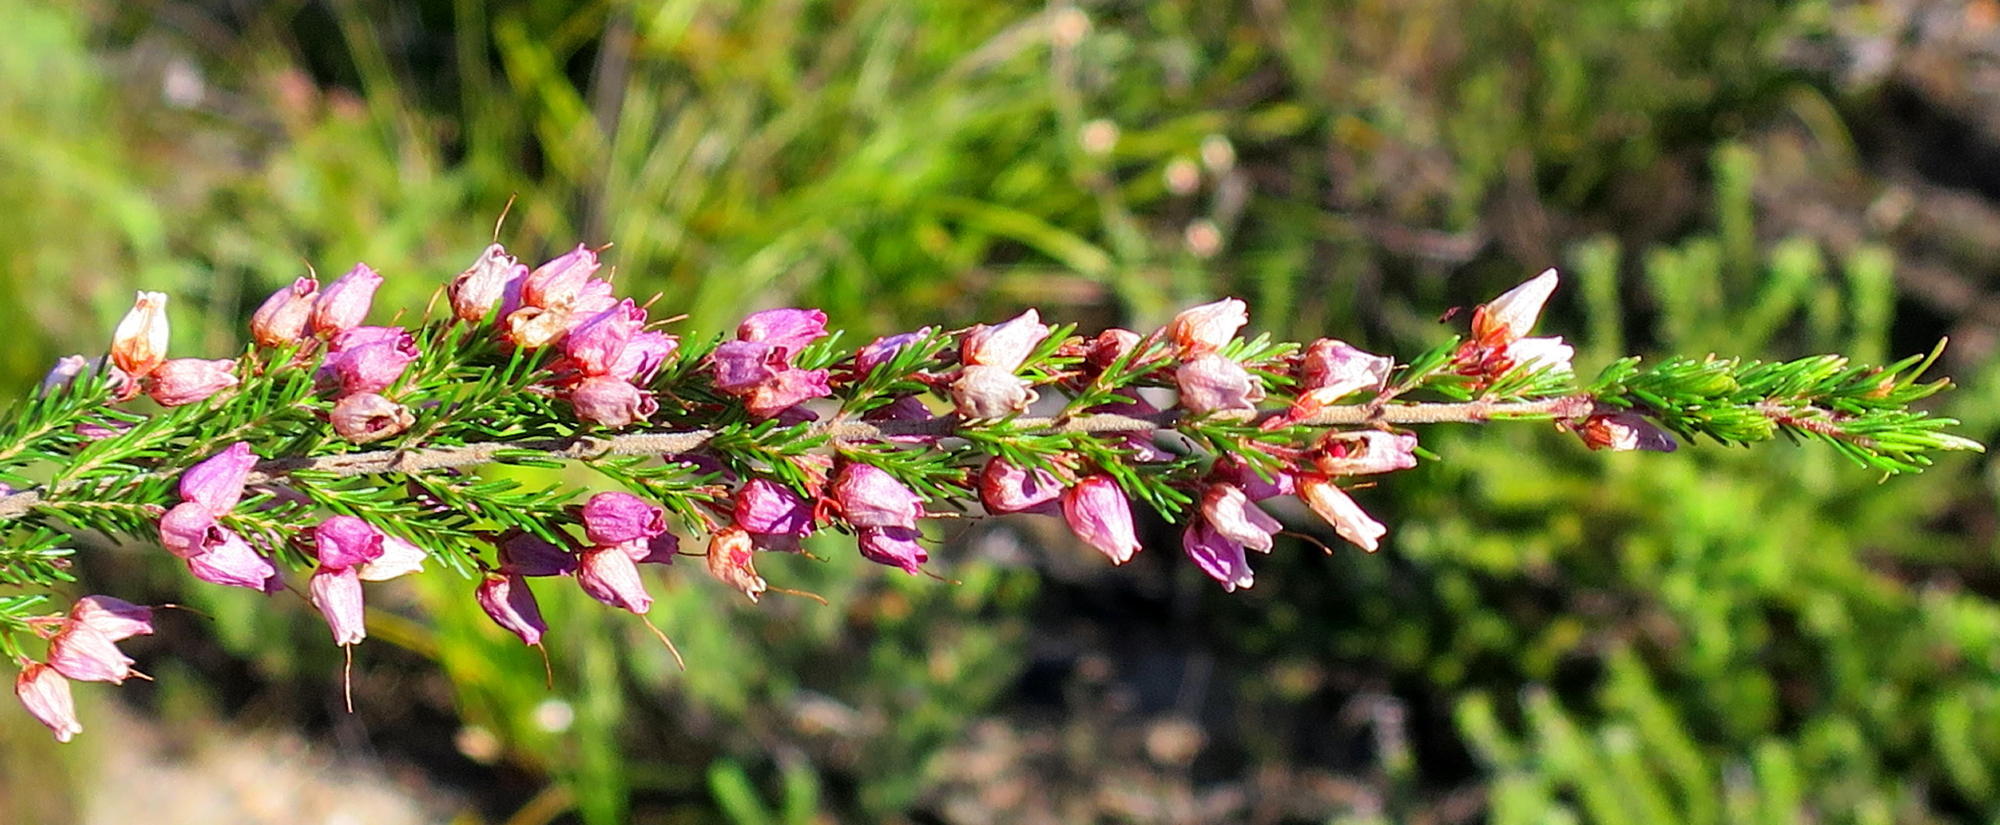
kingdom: Plantae
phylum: Tracheophyta
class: Magnoliopsida
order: Ericales
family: Ericaceae
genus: Erica
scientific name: Erica nutans
